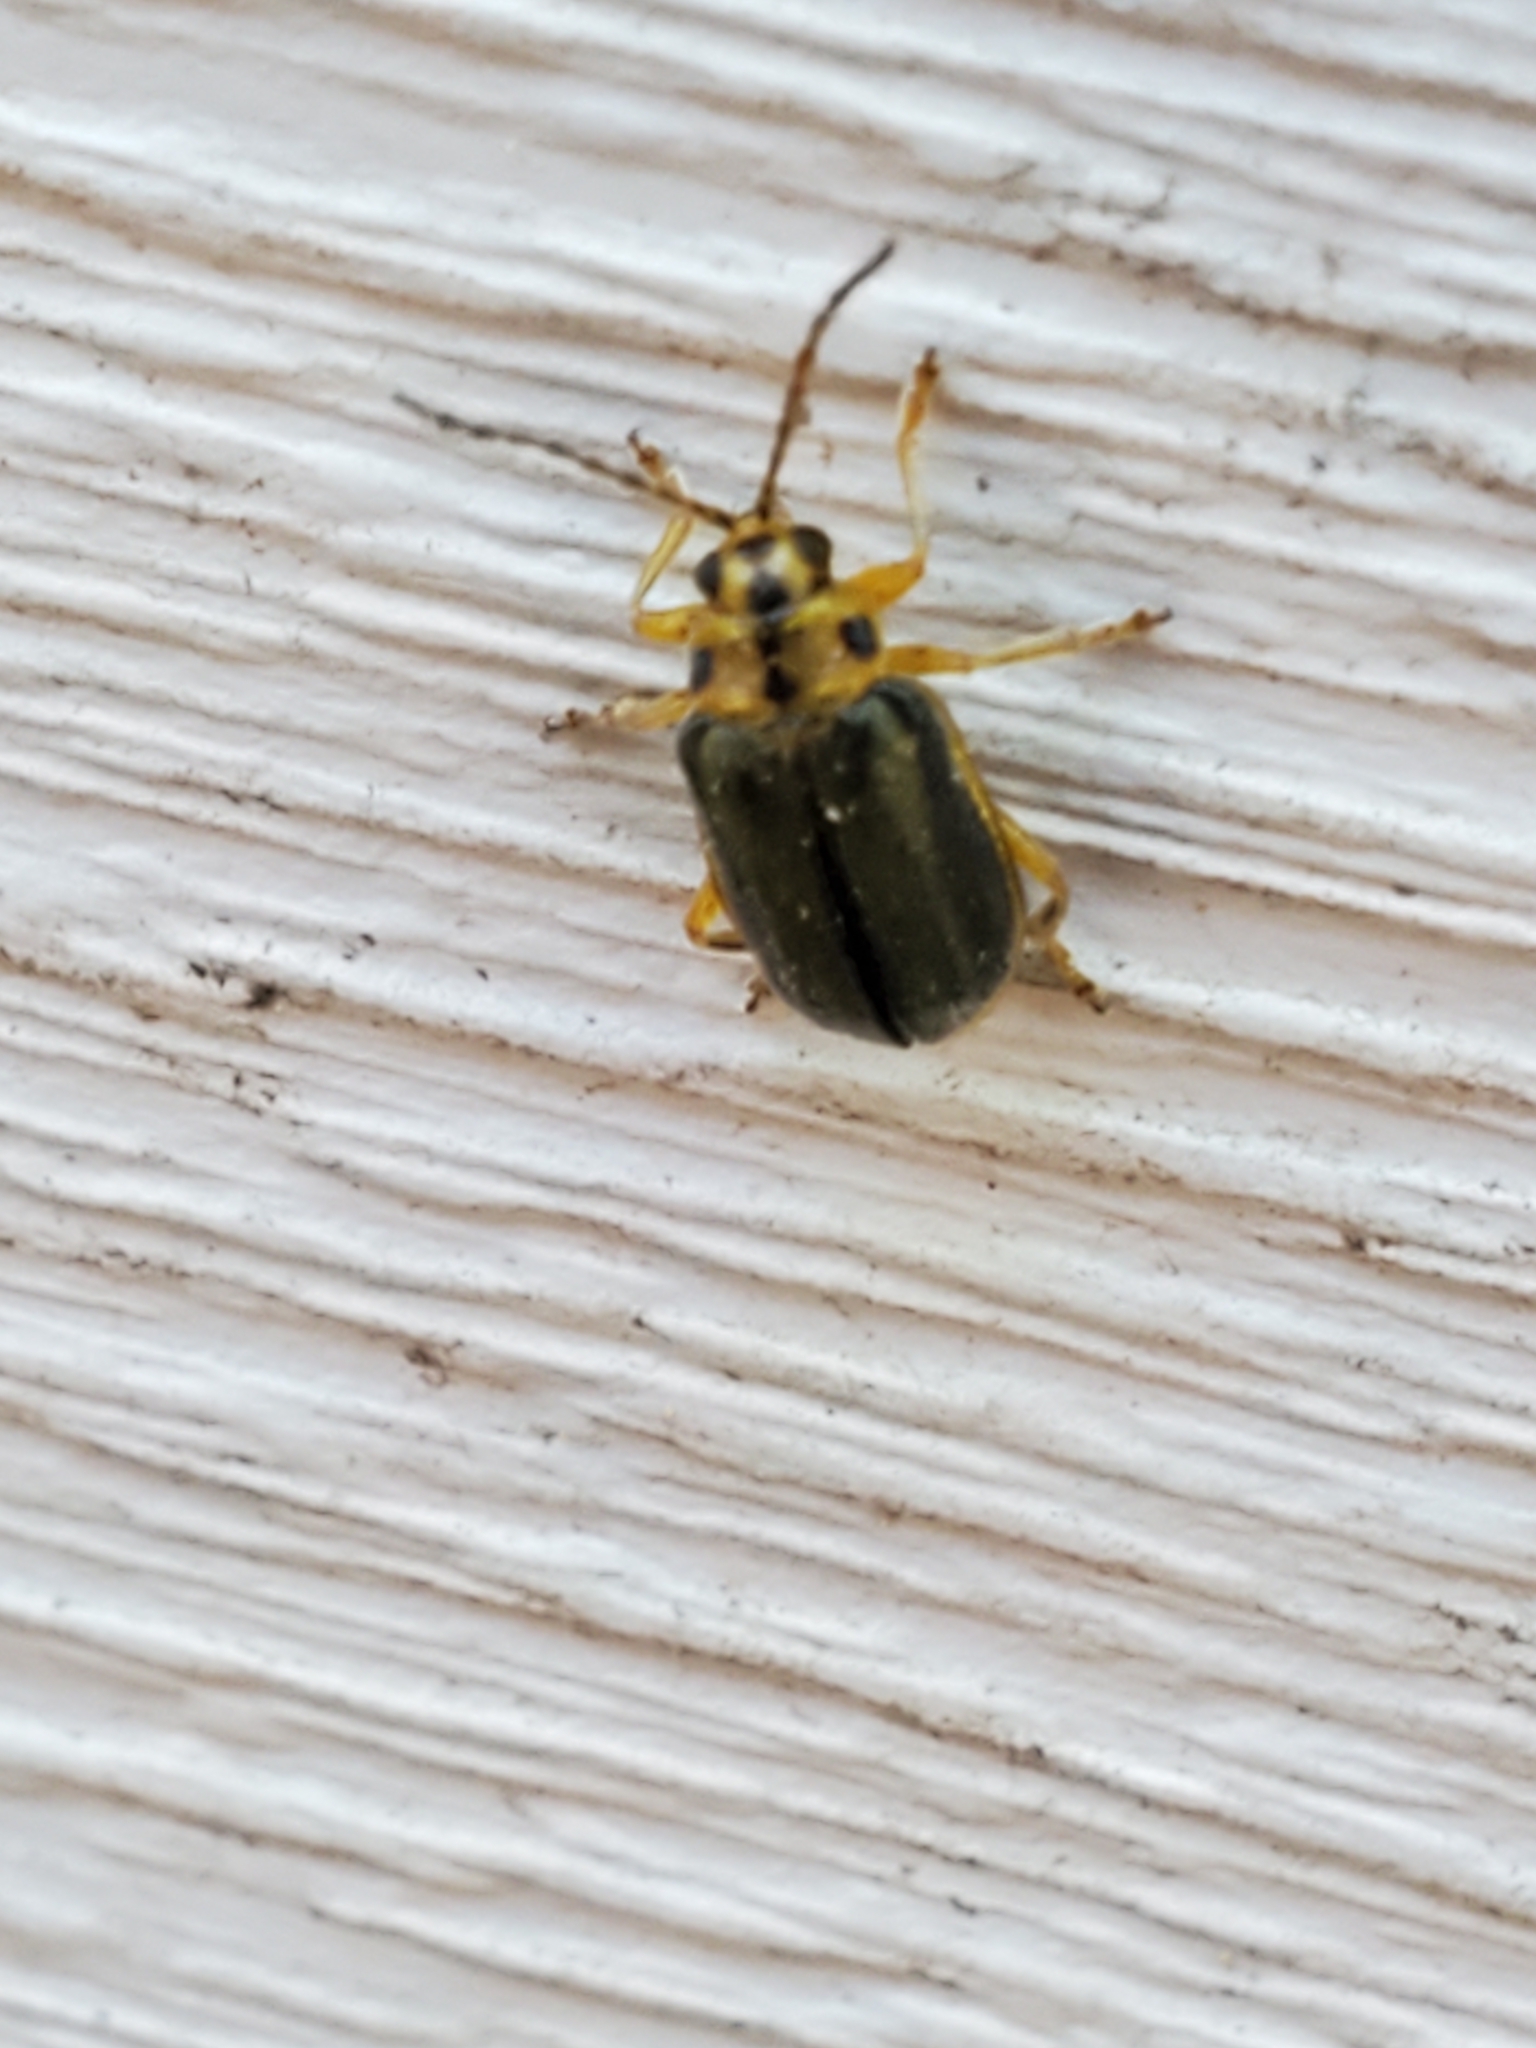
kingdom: Animalia
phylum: Arthropoda
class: Insecta
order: Coleoptera
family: Chrysomelidae
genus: Xanthogaleruca
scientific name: Xanthogaleruca luteola
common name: Elm leaf beetle
